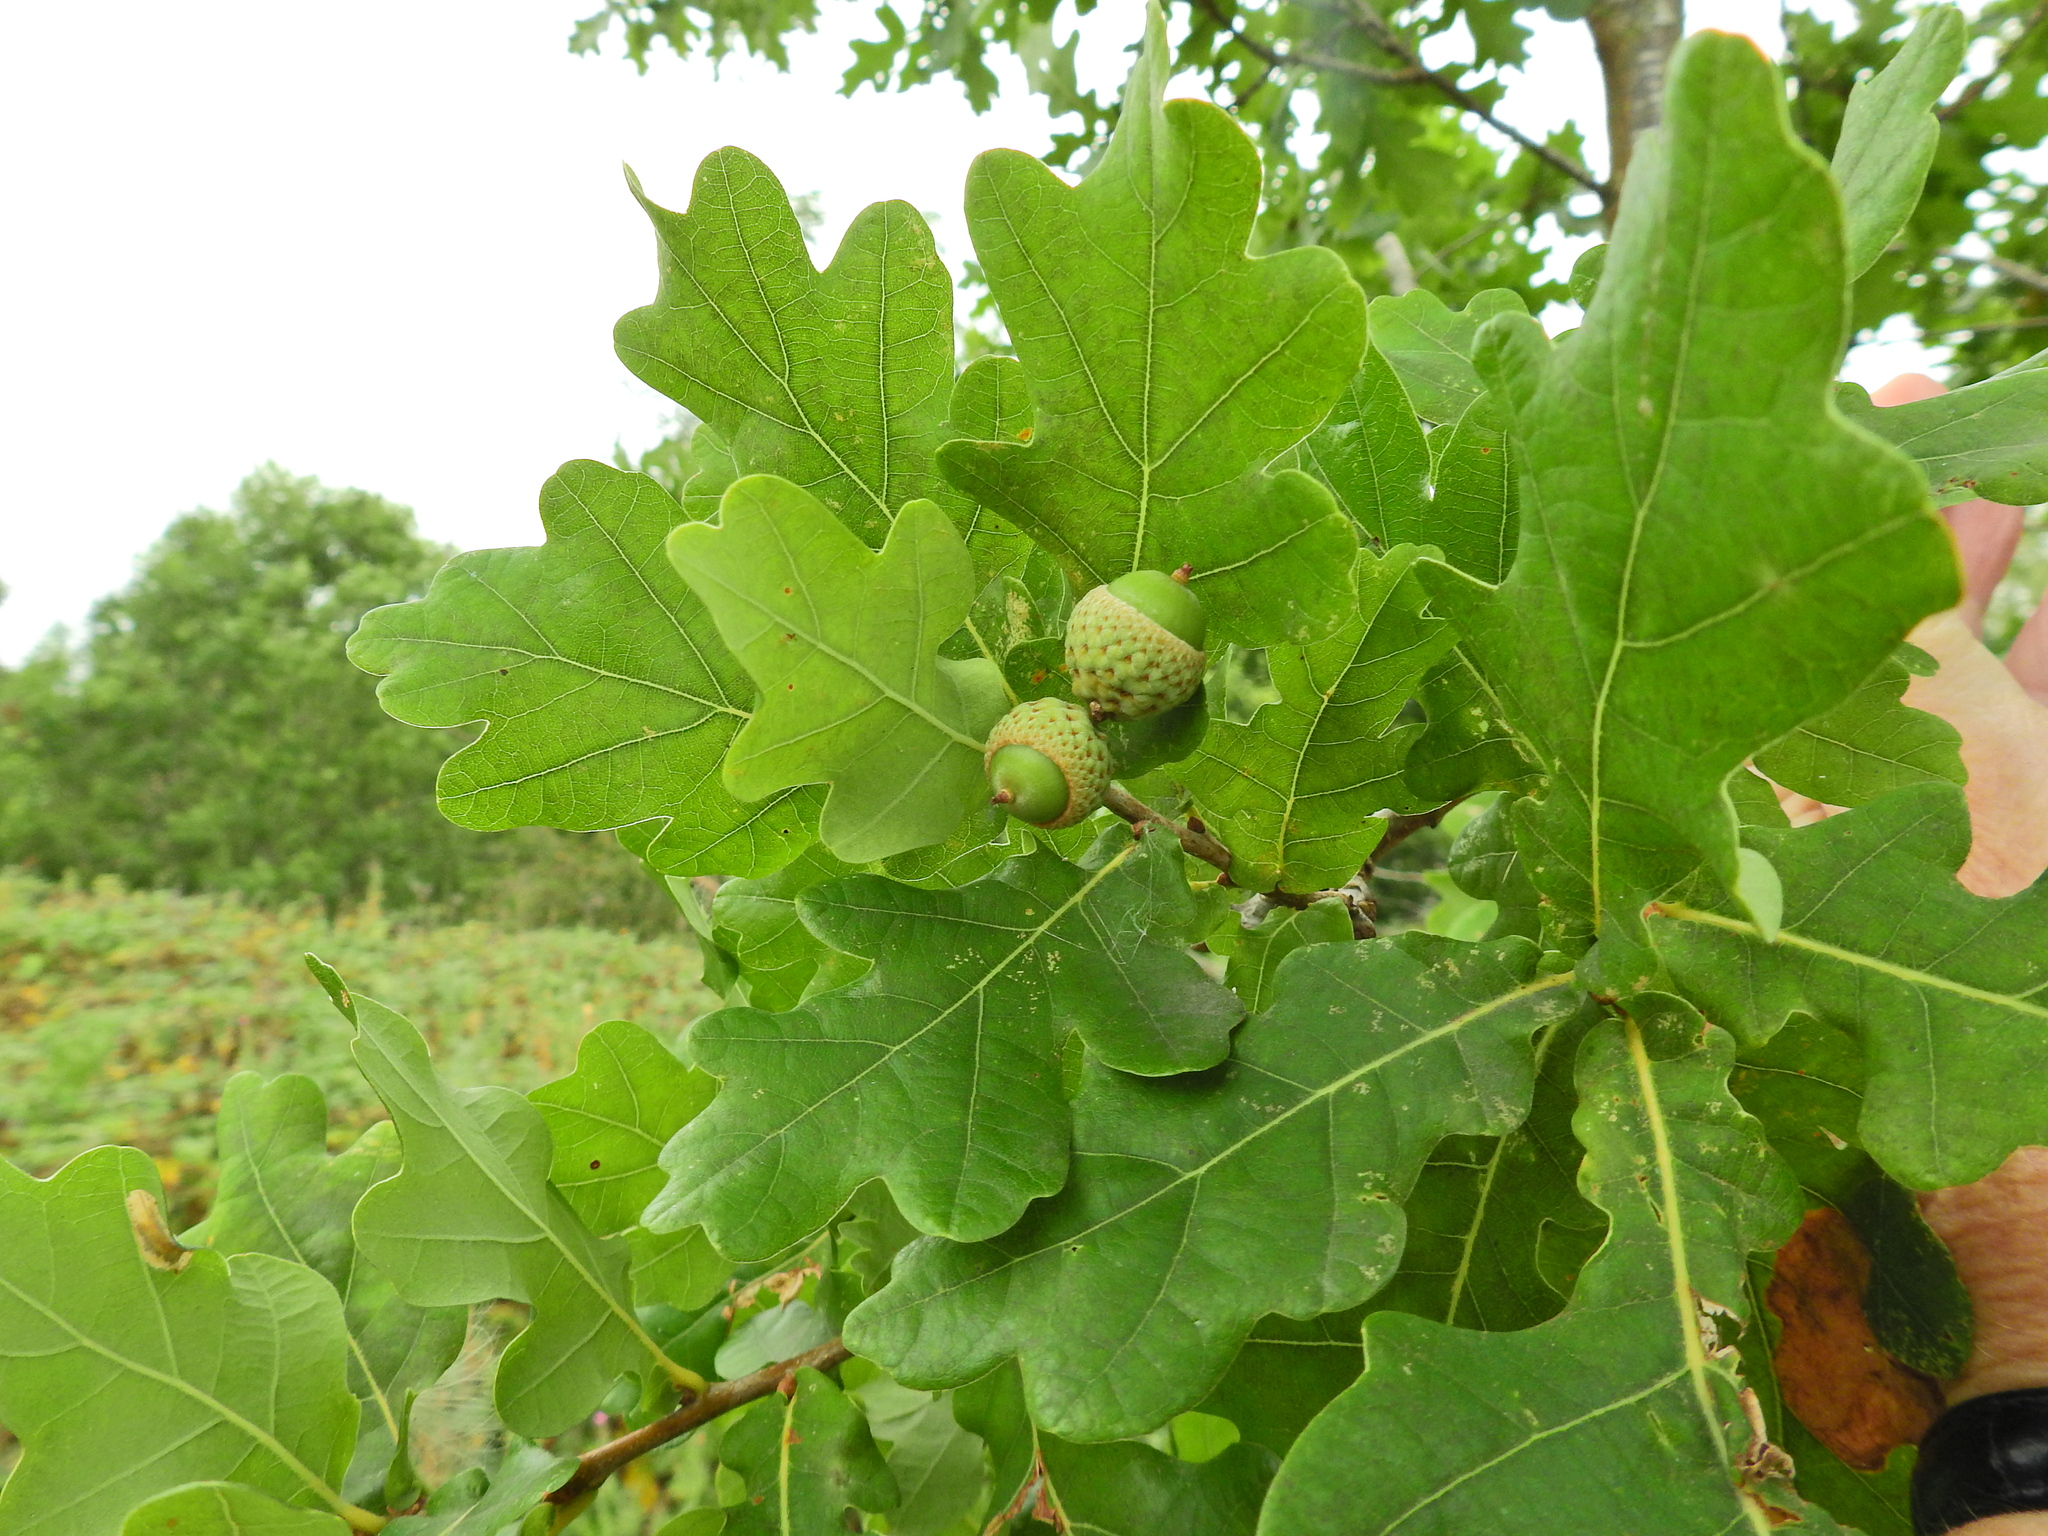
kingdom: Plantae
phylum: Tracheophyta
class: Magnoliopsida
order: Fagales
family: Fagaceae
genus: Quercus
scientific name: Quercus robur
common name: Pedunculate oak
